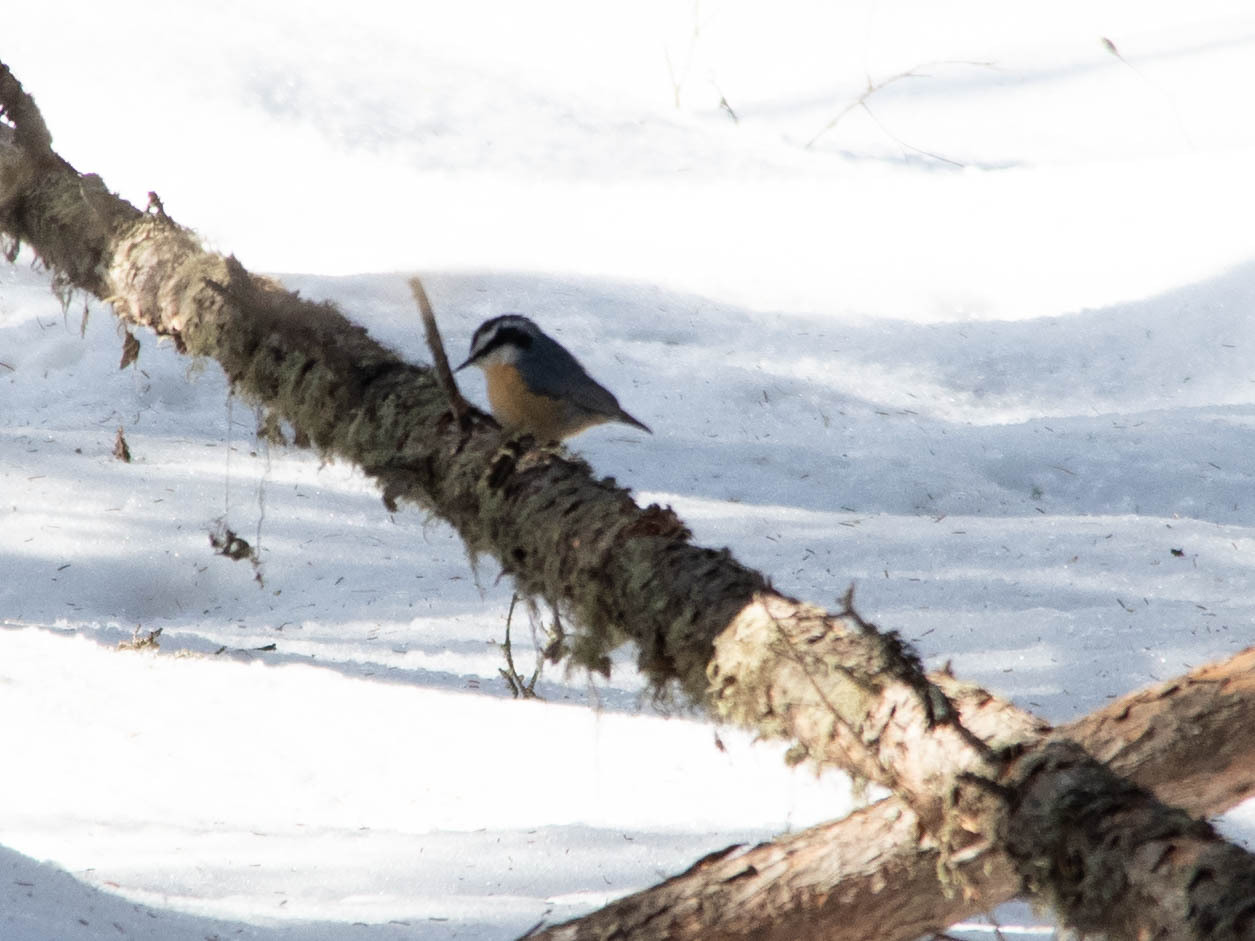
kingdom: Animalia
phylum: Chordata
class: Aves
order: Passeriformes
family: Sittidae
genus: Sitta
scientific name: Sitta canadensis
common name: Red-breasted nuthatch
